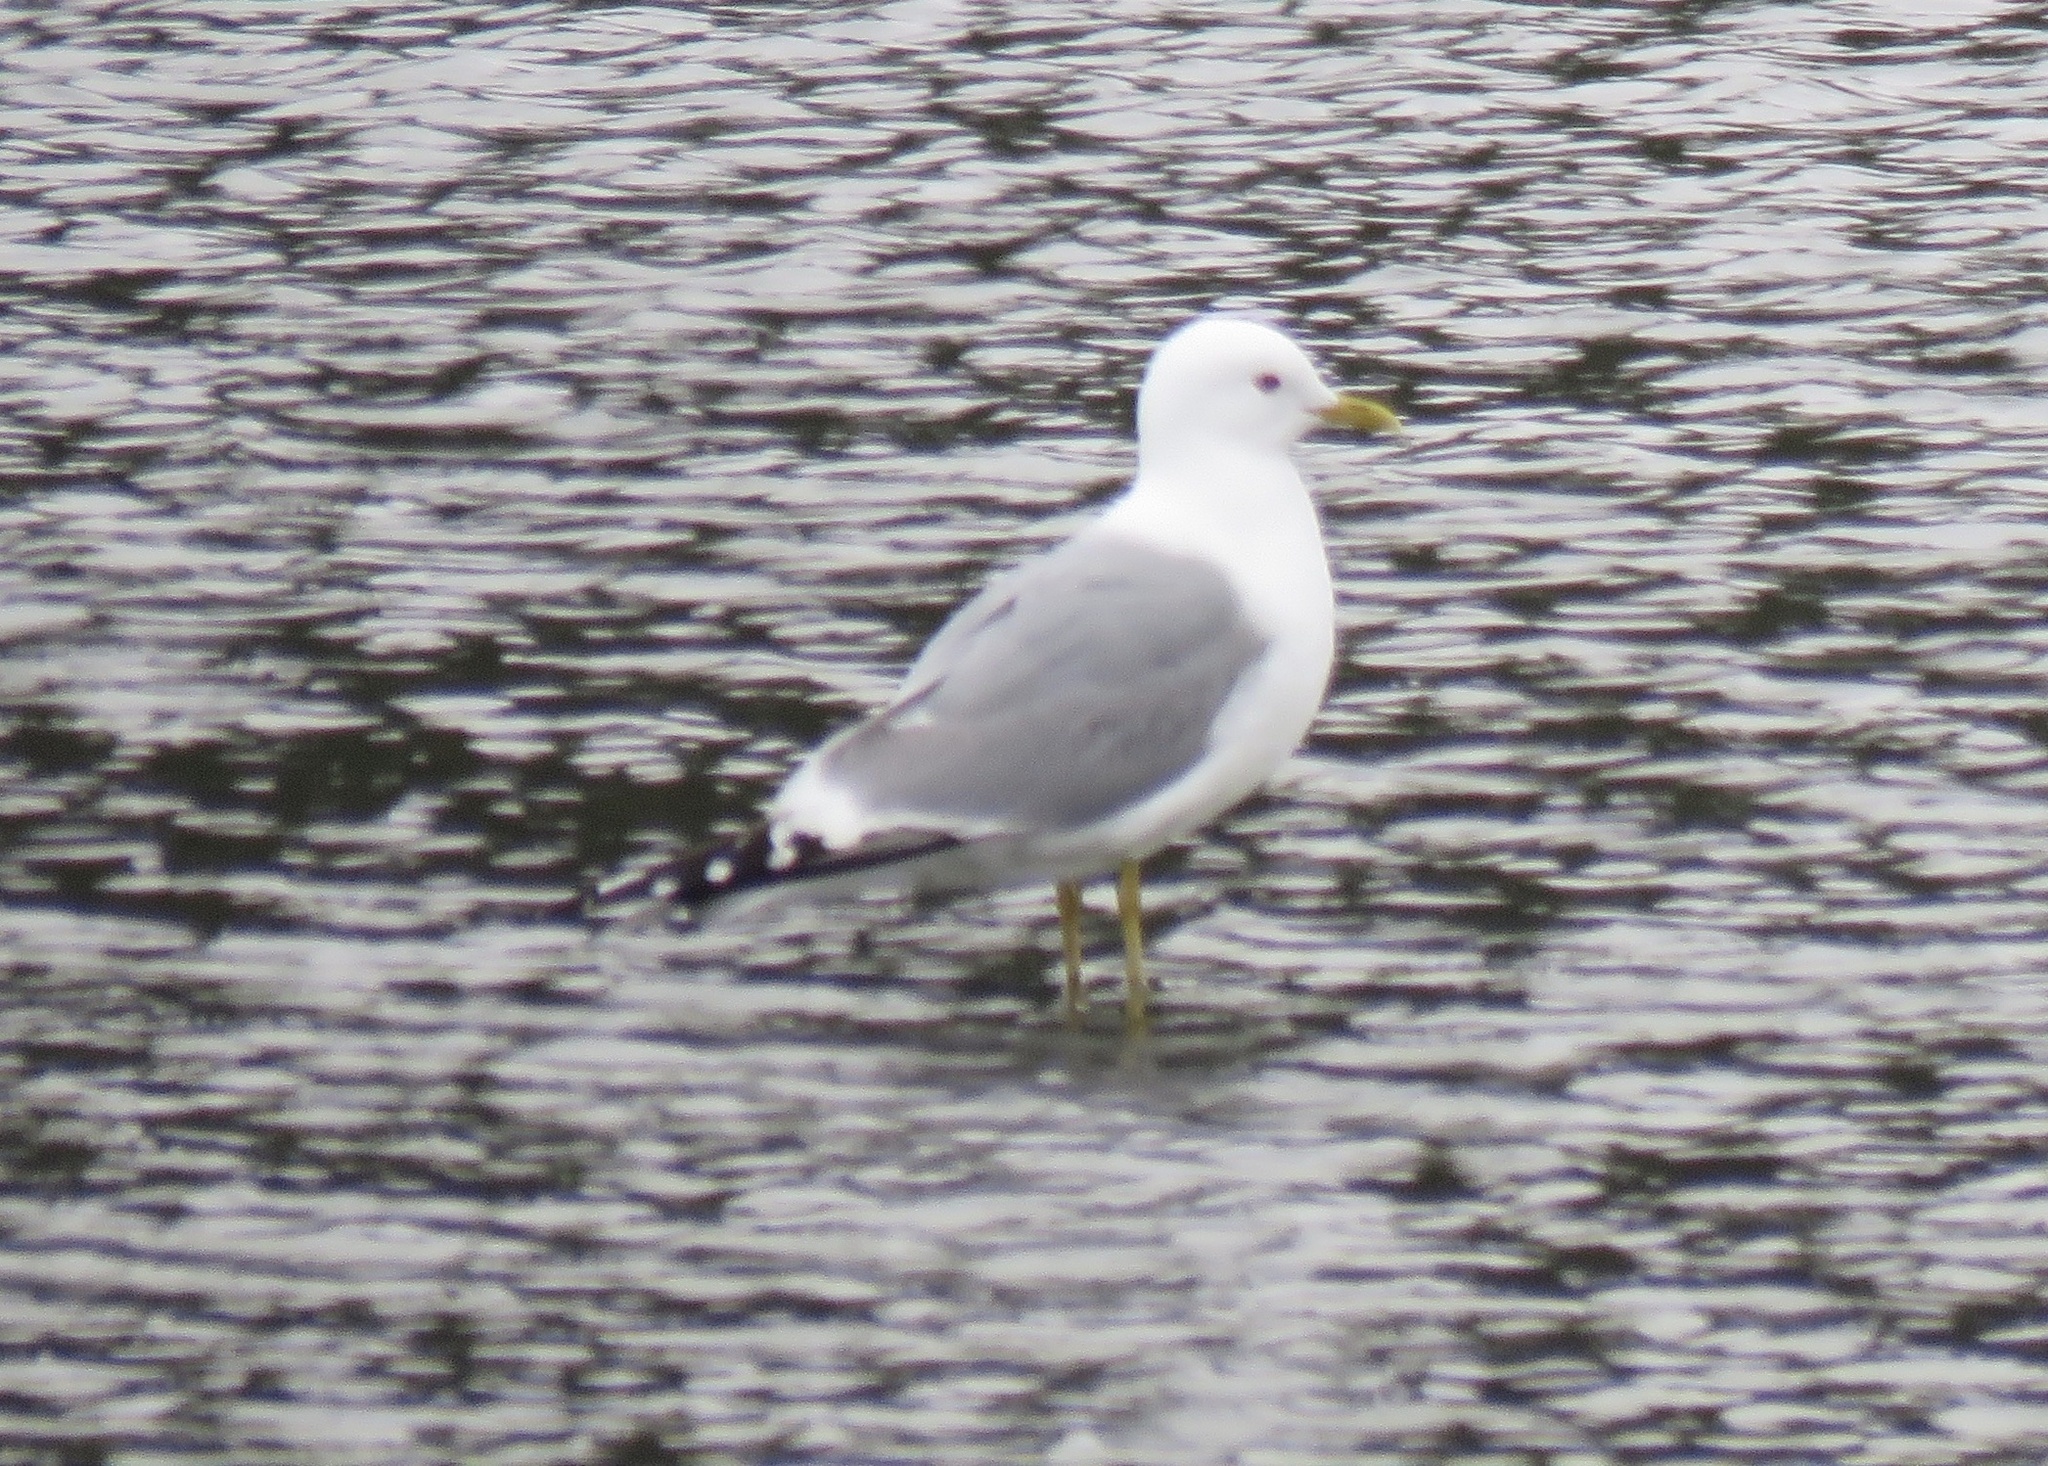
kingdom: Animalia
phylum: Chordata
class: Aves
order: Charadriiformes
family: Laridae
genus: Larus
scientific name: Larus brachyrhynchus
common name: Short-billed gull
